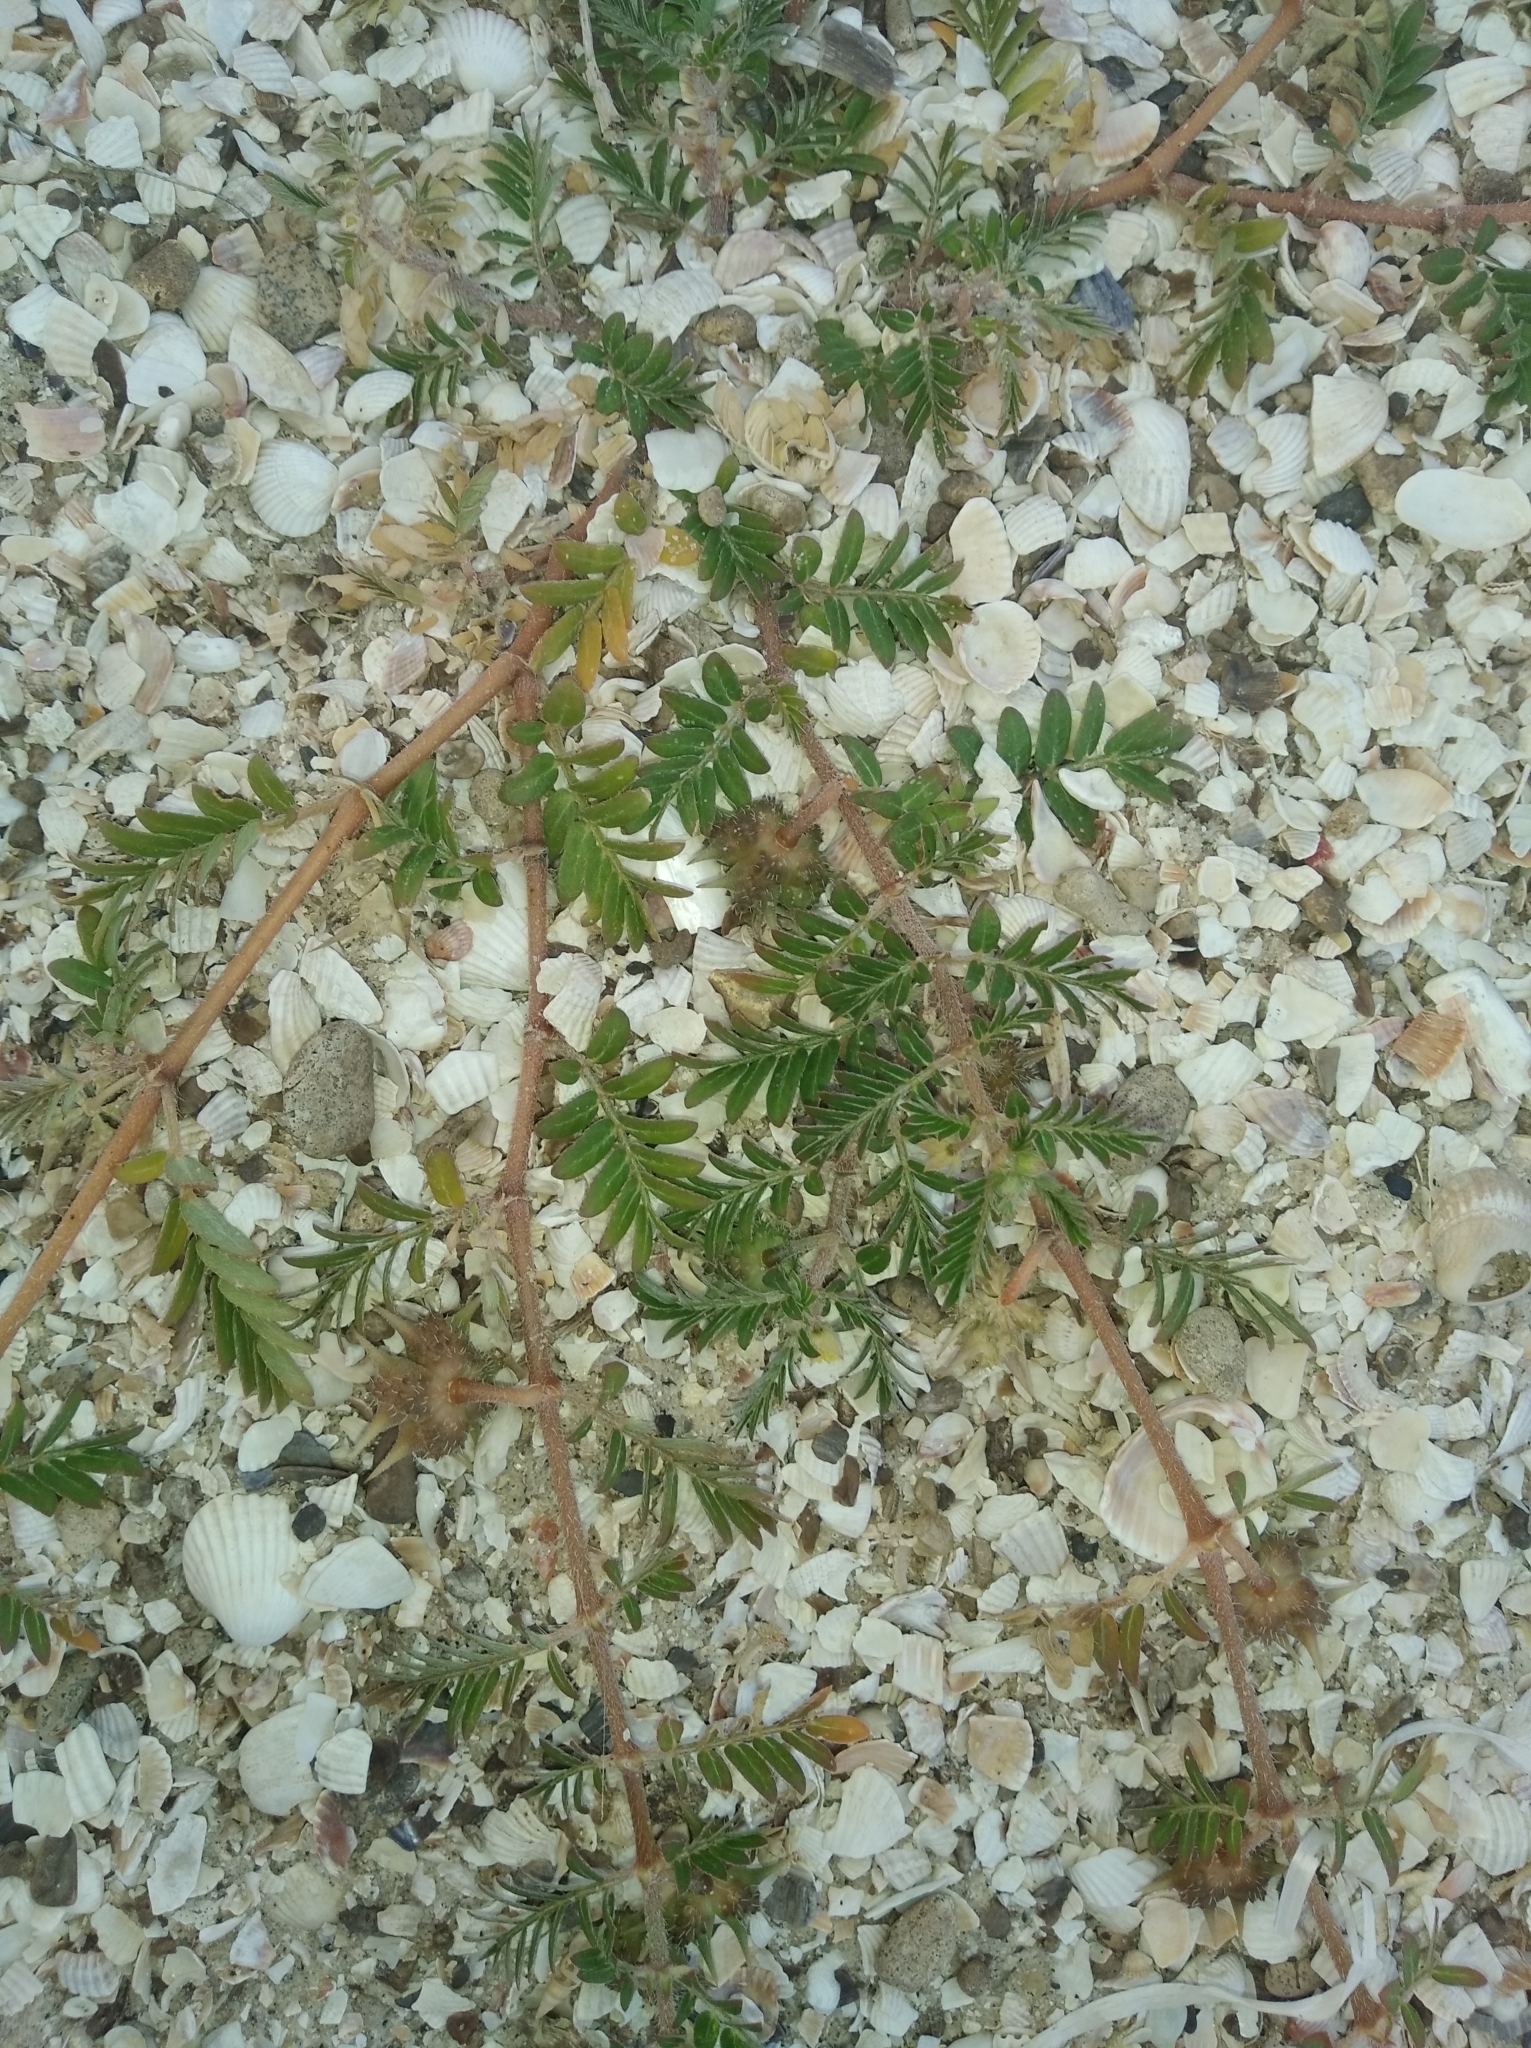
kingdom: Plantae
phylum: Tracheophyta
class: Magnoliopsida
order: Zygophyllales
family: Zygophyllaceae
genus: Tribulus
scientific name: Tribulus terrestris
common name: Puncturevine
